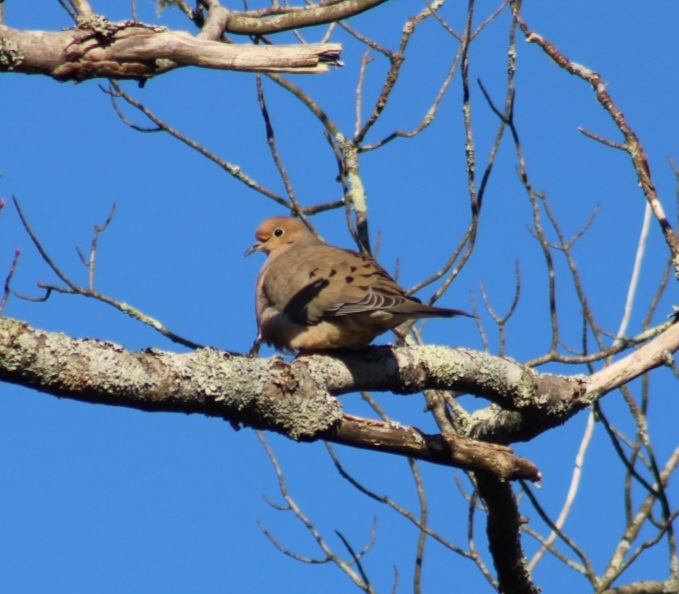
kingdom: Animalia
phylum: Chordata
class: Aves
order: Columbiformes
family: Columbidae
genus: Zenaida
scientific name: Zenaida macroura
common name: Mourning dove
